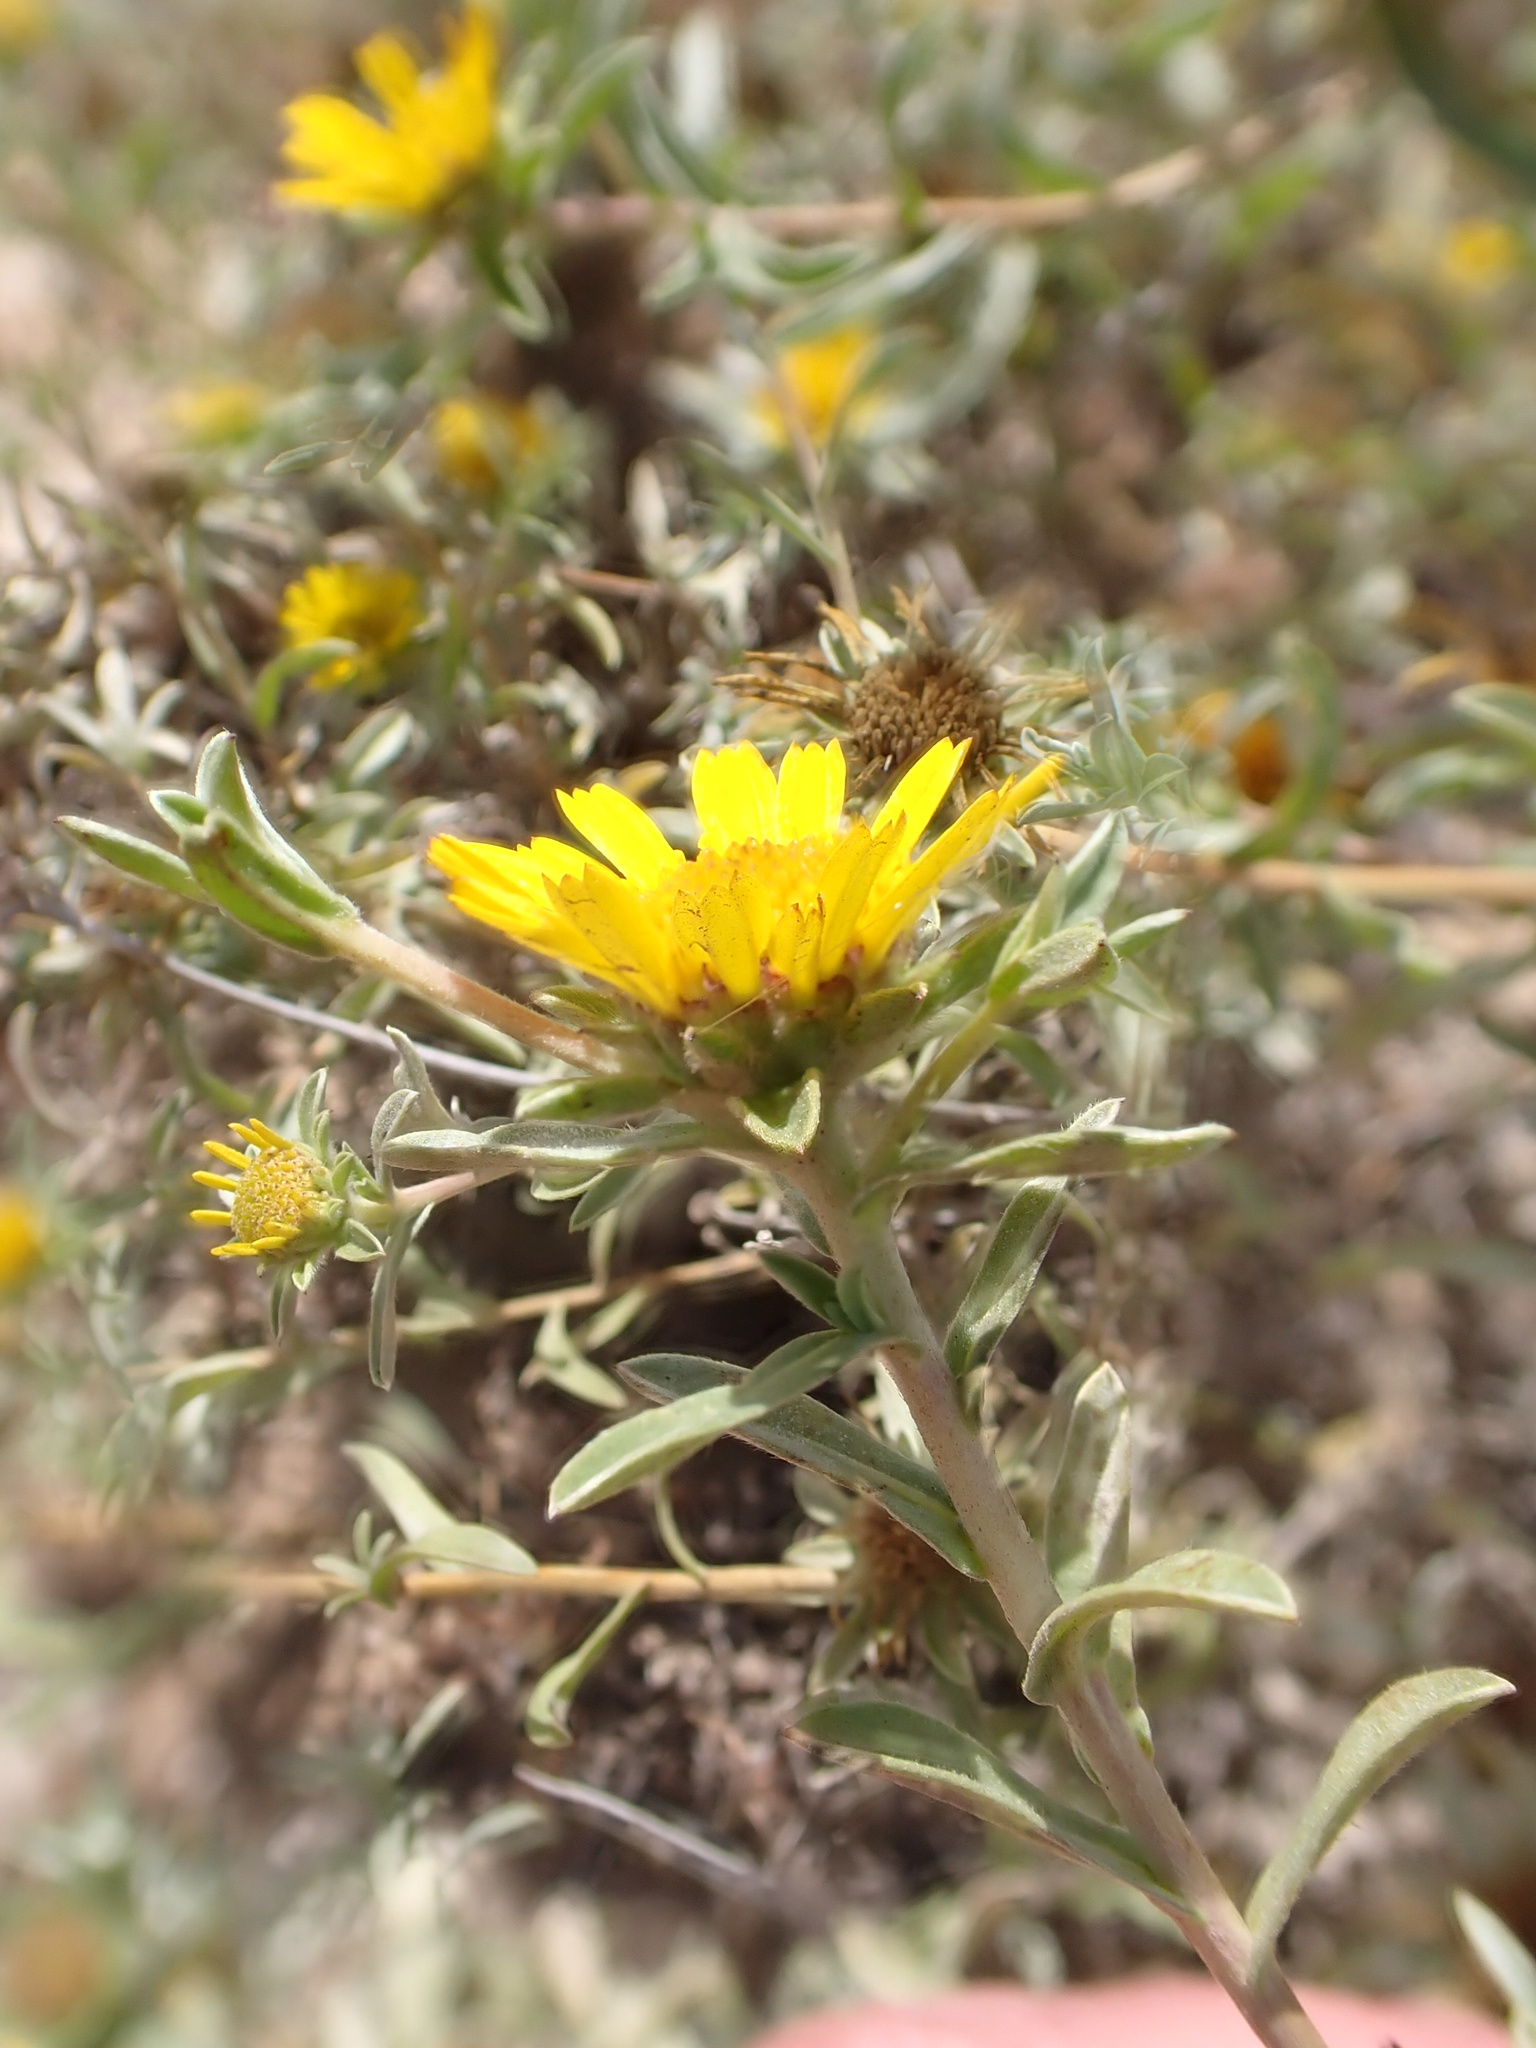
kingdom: Plantae
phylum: Tracheophyta
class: Magnoliopsida
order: Asterales
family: Asteraceae
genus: Asteriscus
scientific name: Asteriscus graveolens
